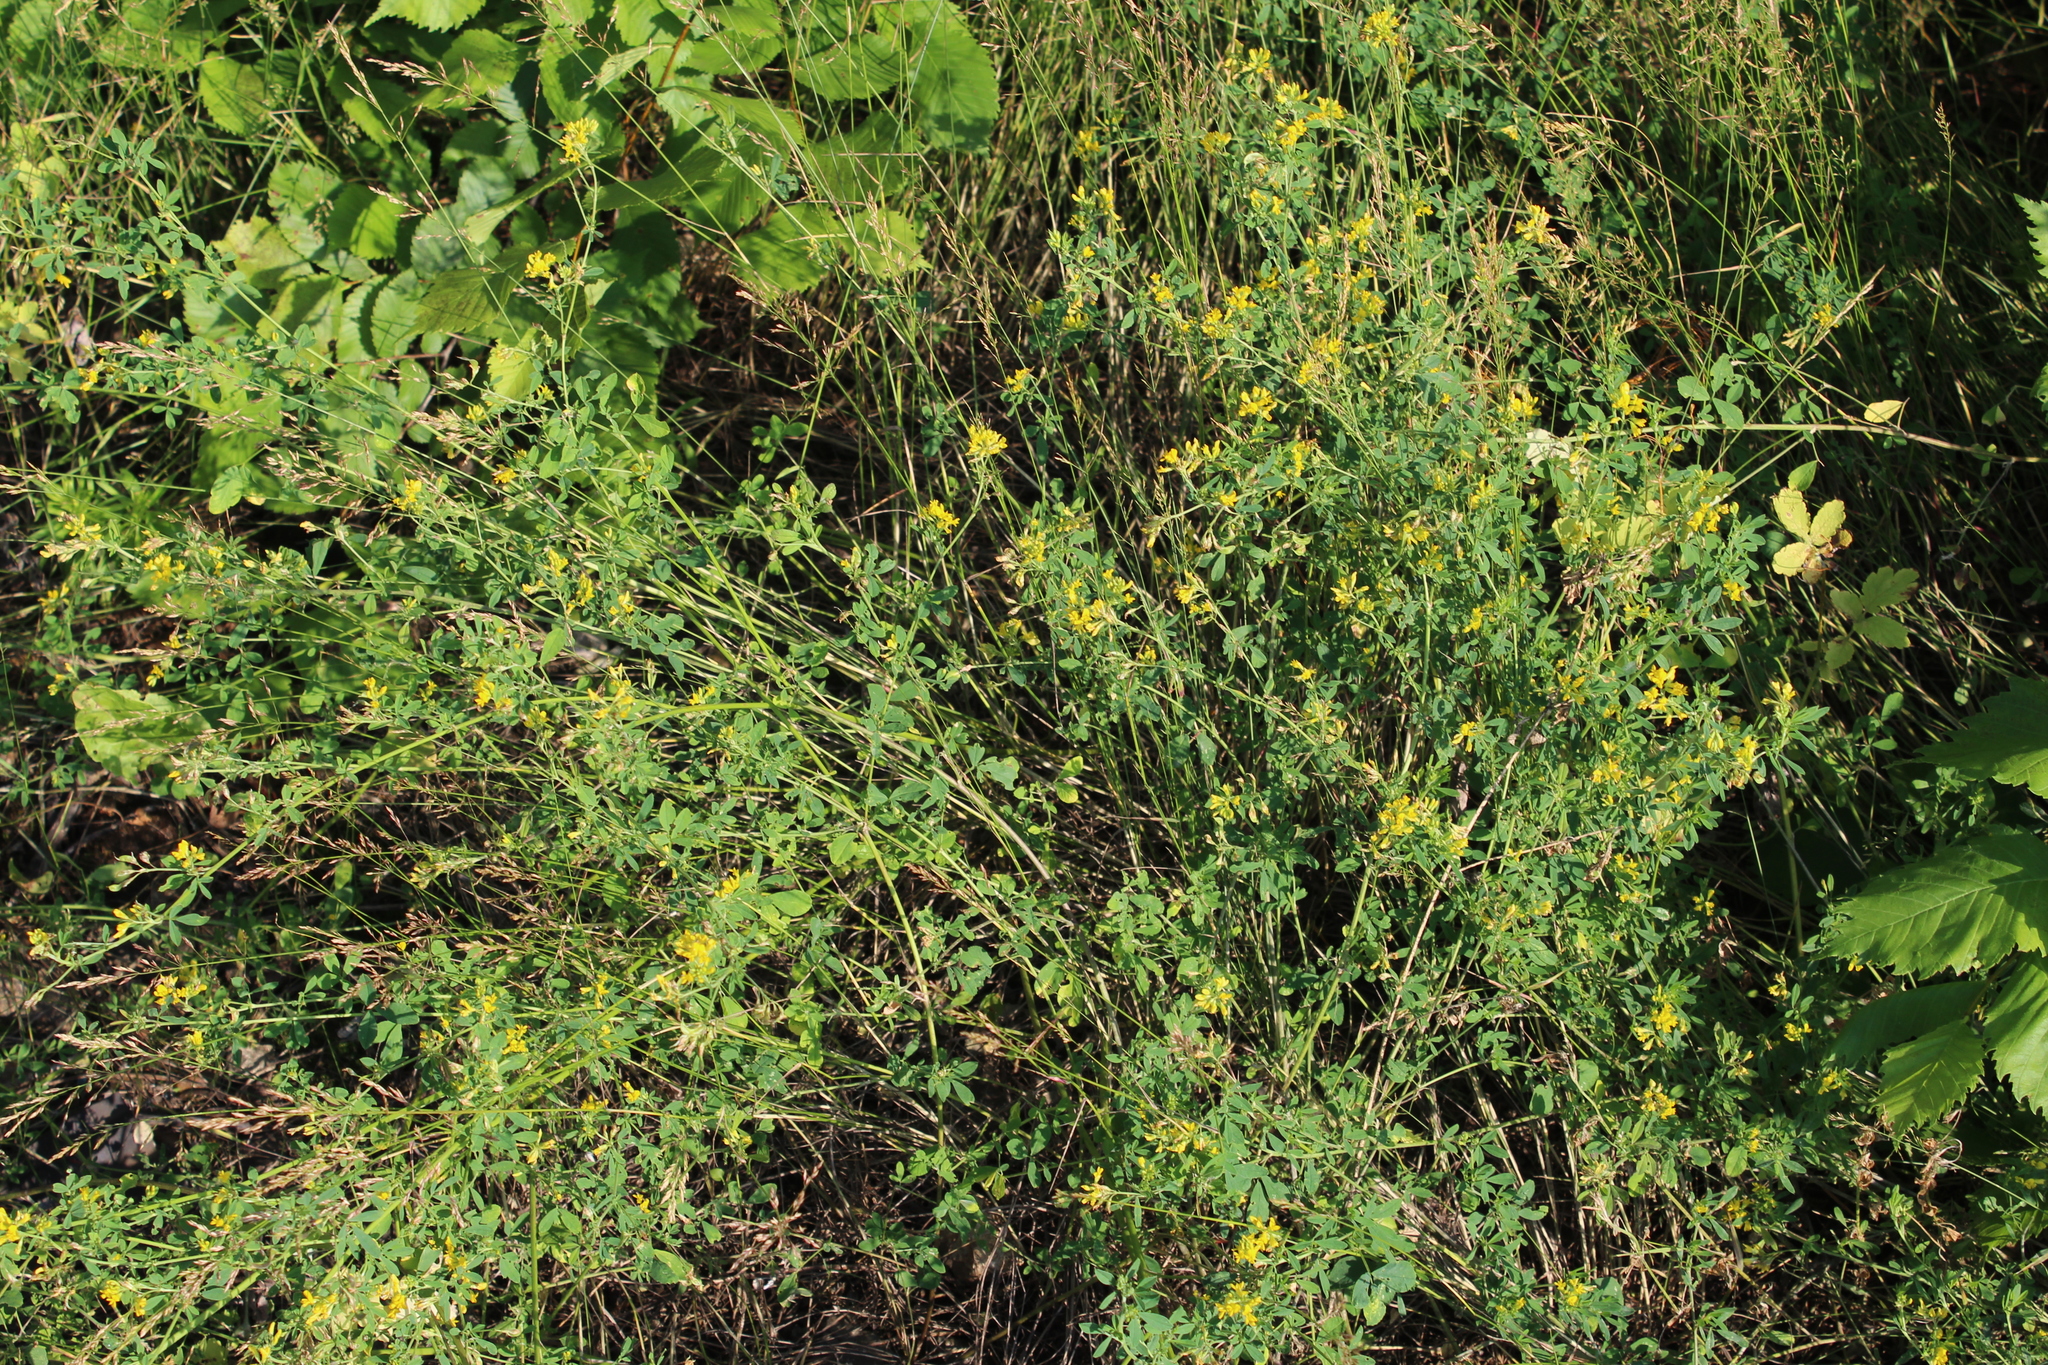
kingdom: Plantae
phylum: Tracheophyta
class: Magnoliopsida
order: Fabales
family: Fabaceae
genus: Medicago
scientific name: Medicago falcata
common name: Sickle medick
